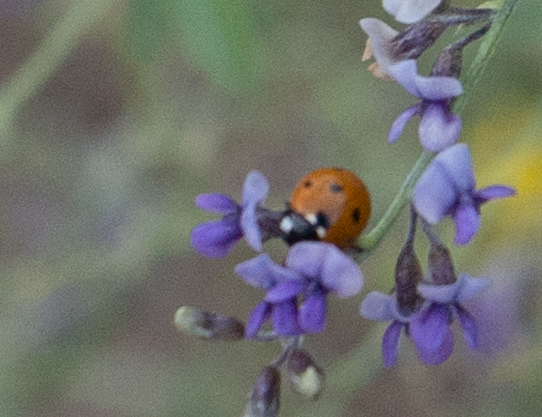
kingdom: Animalia
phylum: Arthropoda
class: Insecta
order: Coleoptera
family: Coccinellidae
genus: Coccinella
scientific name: Coccinella septempunctata
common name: Sevenspotted lady beetle
